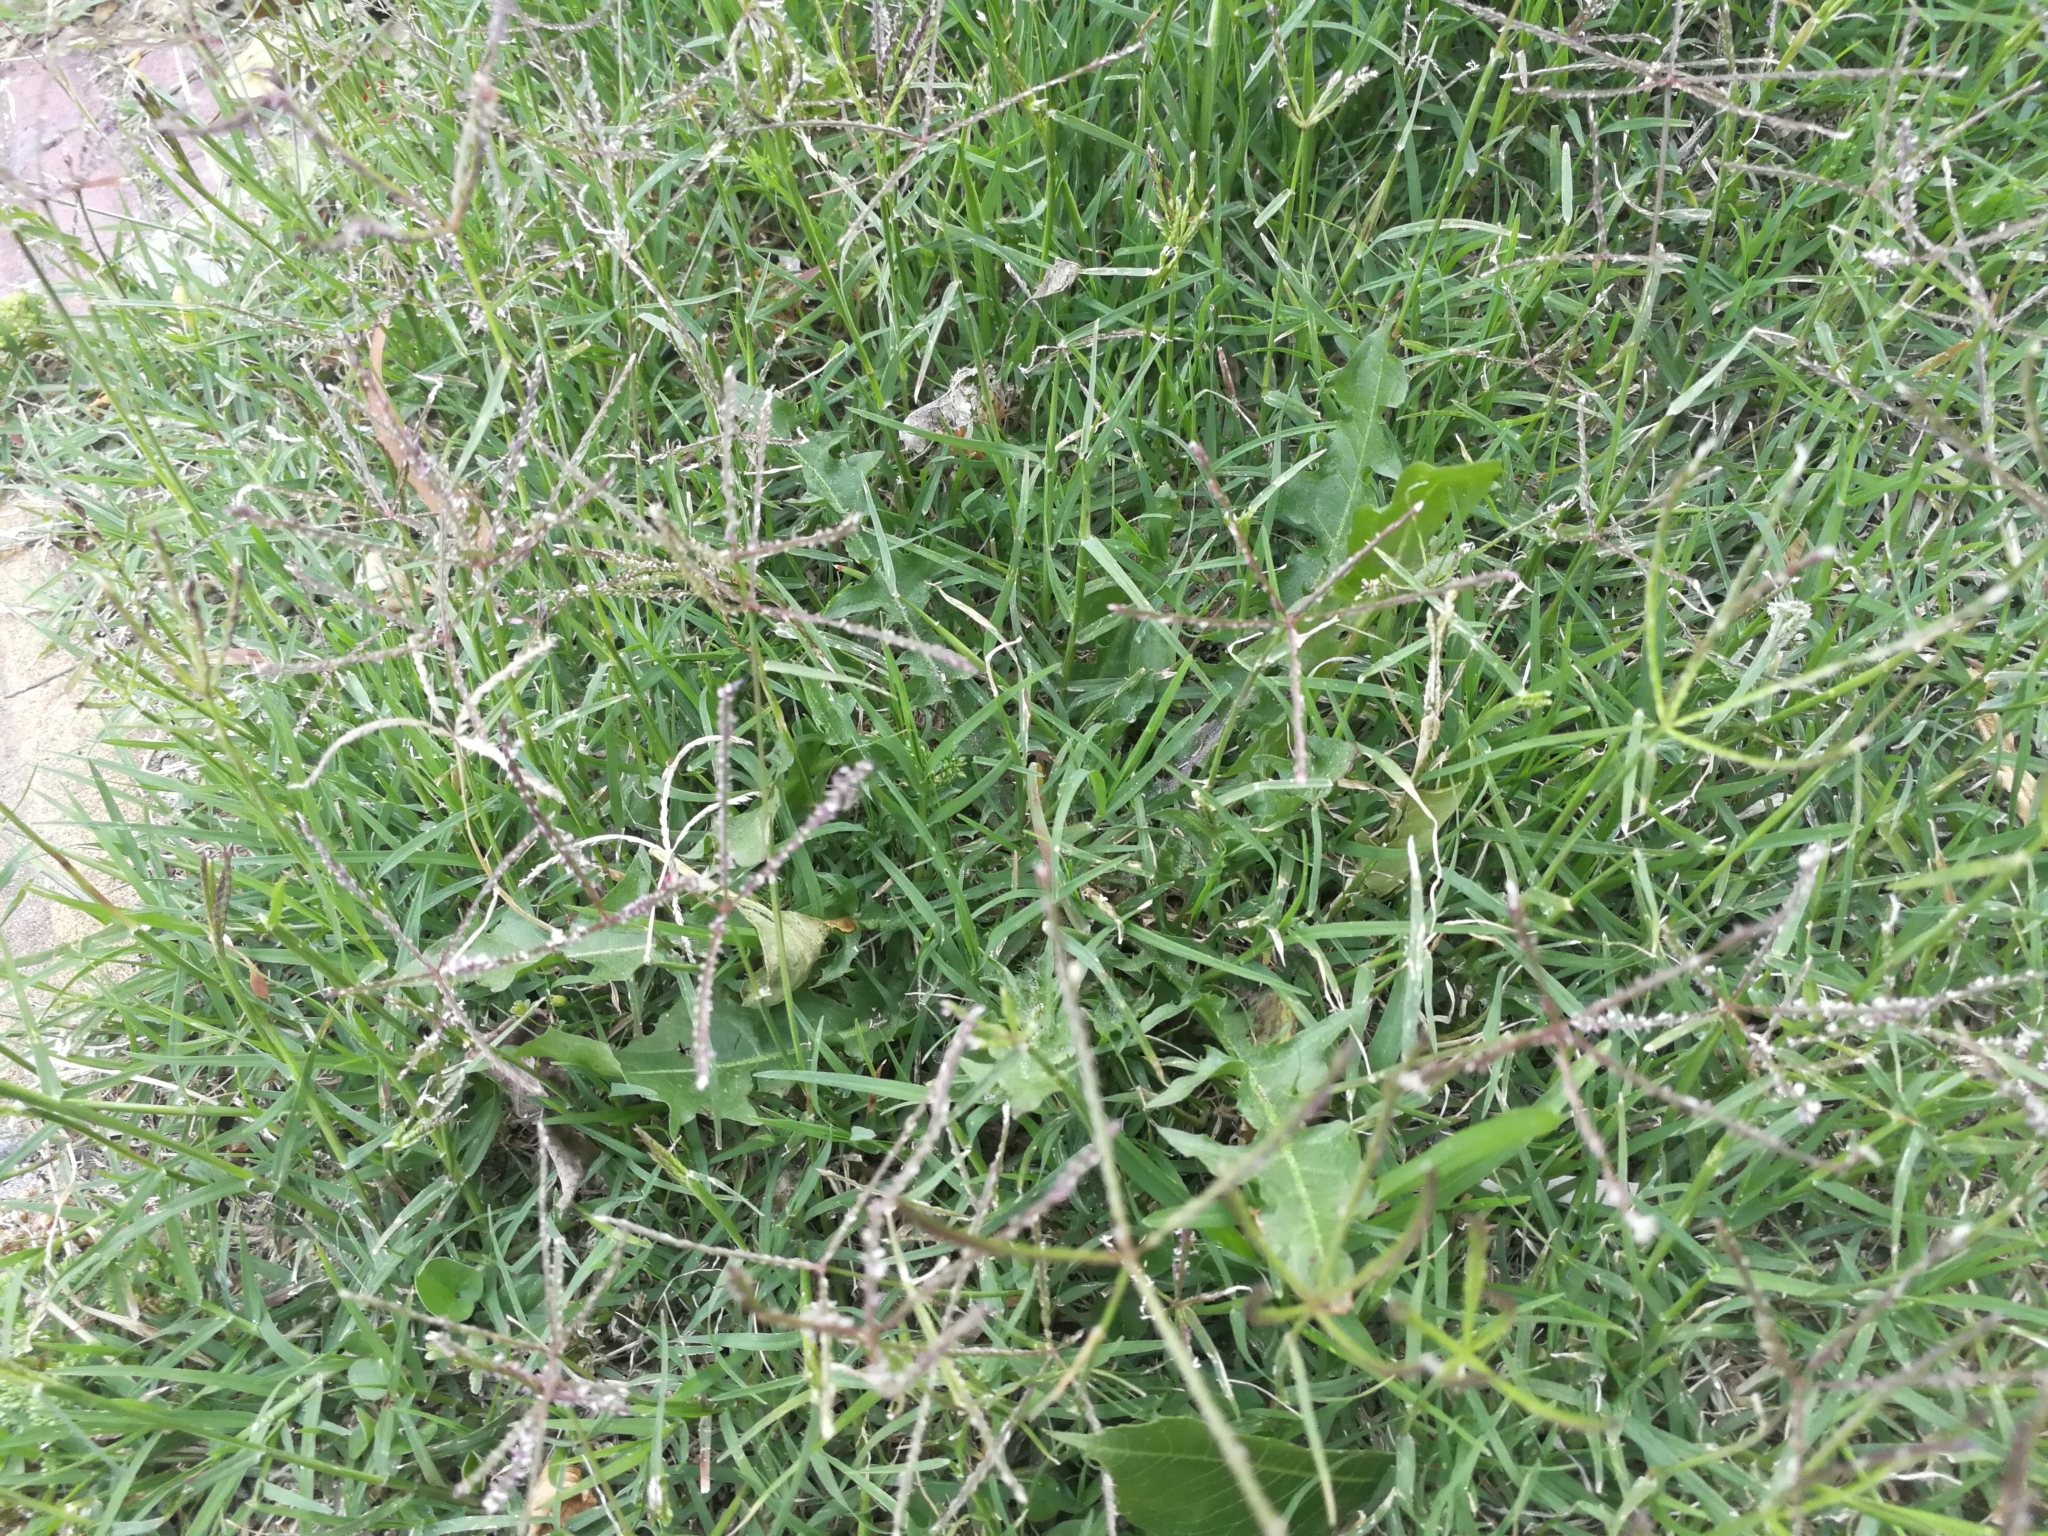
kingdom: Plantae
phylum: Tracheophyta
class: Liliopsida
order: Poales
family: Poaceae
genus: Cynodon
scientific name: Cynodon dactylon
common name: Bermuda grass
